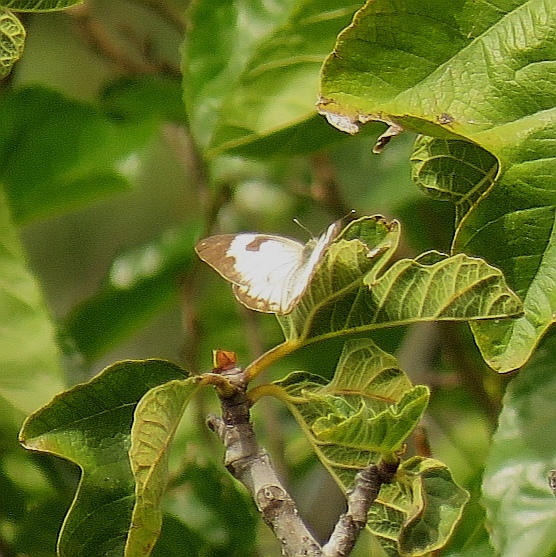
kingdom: Animalia
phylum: Arthropoda
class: Insecta
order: Lepidoptera
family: Pieridae
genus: Belenois
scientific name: Belenois aurota
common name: Brown-veined white
